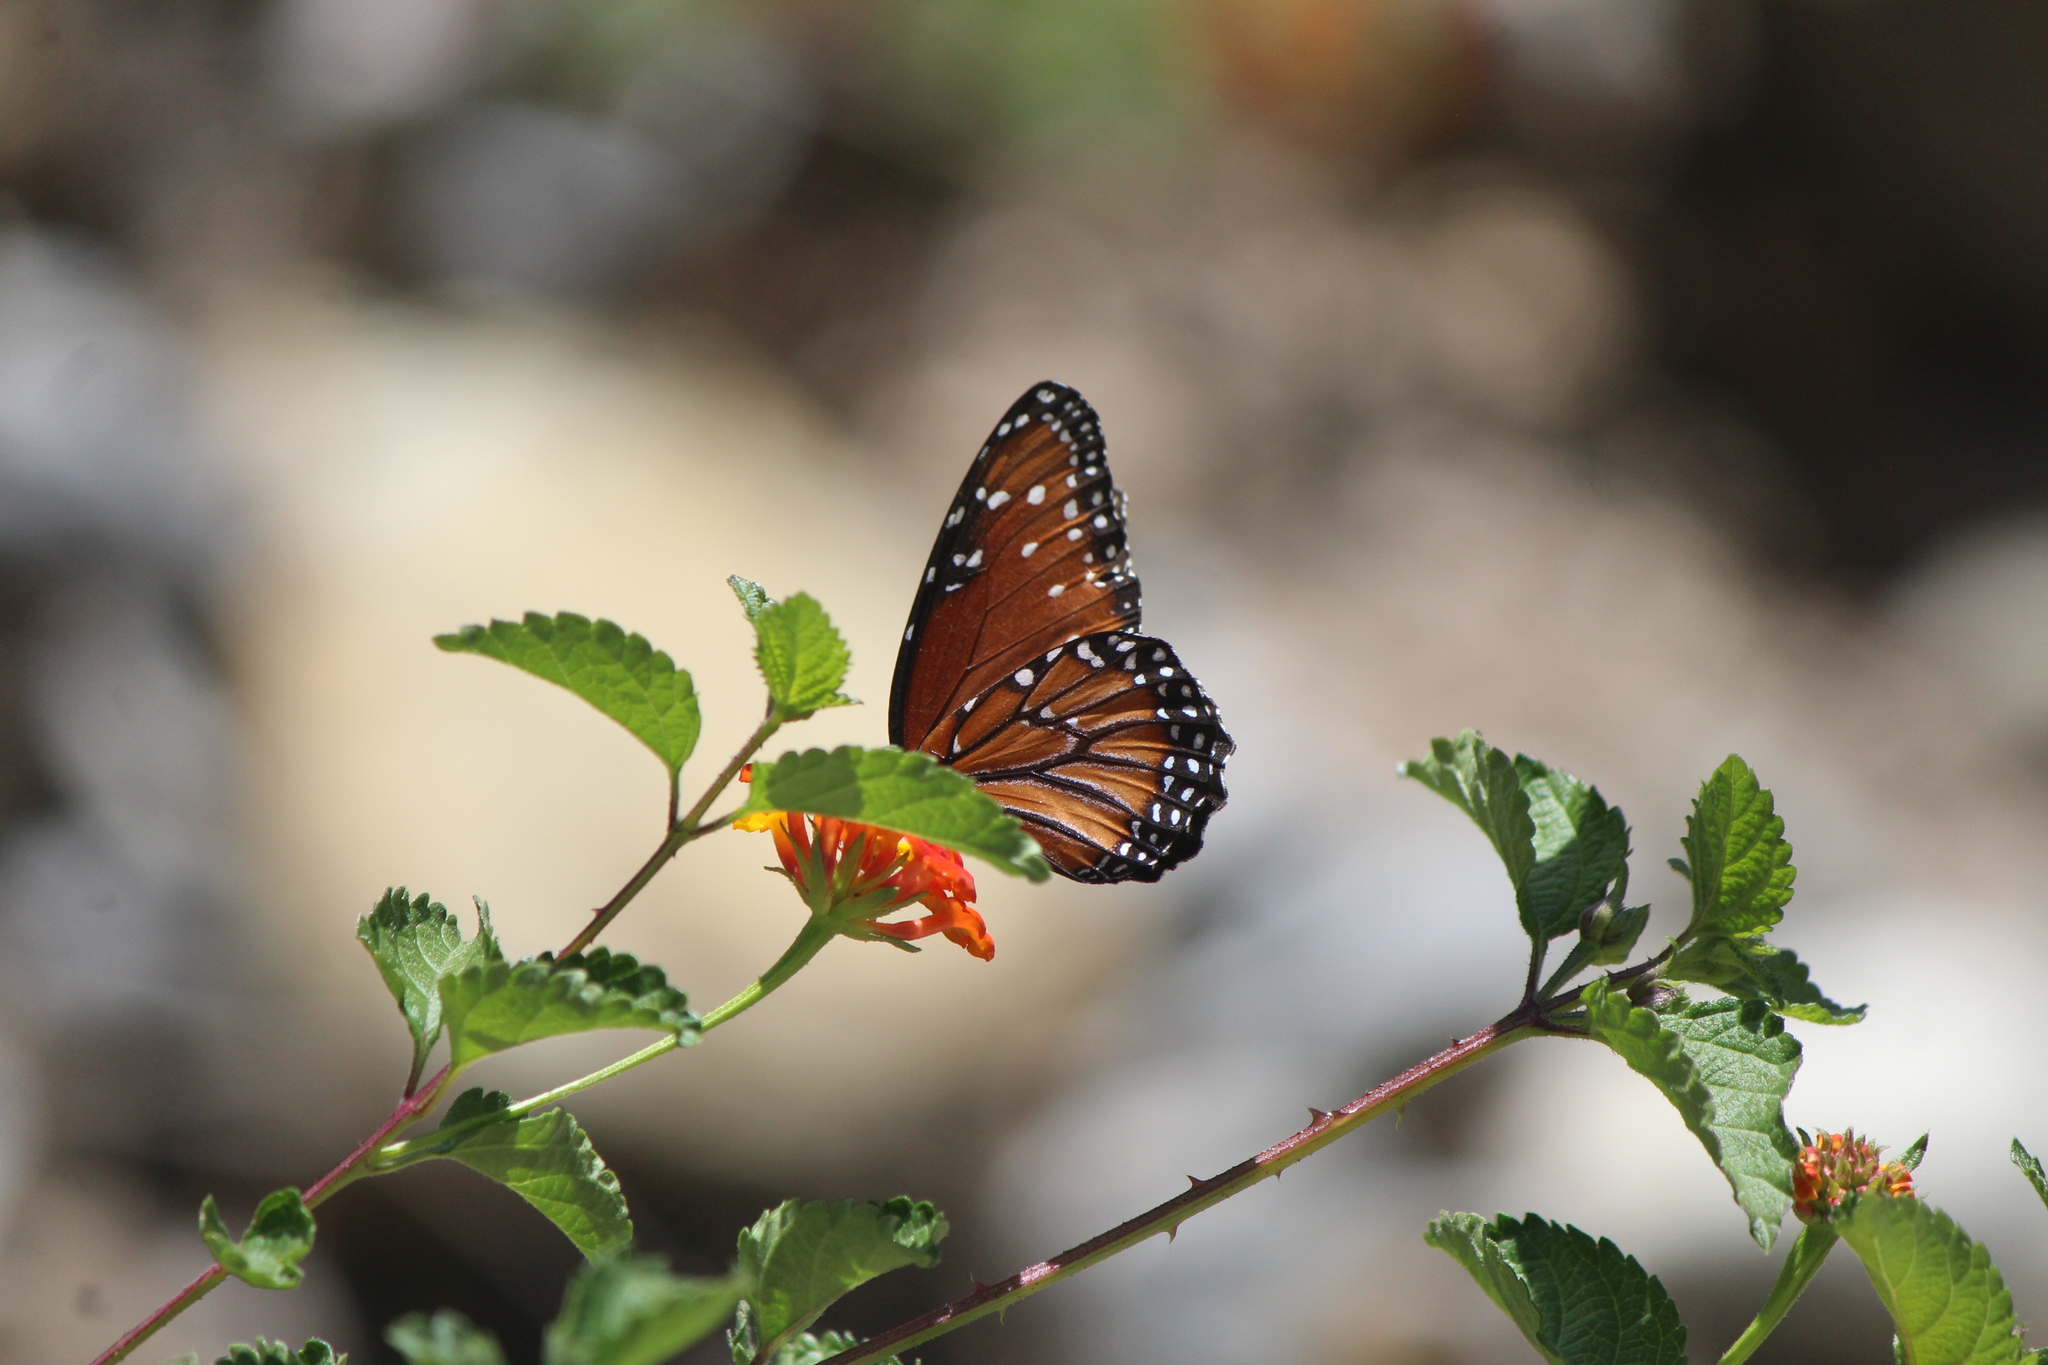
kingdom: Animalia
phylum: Arthropoda
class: Insecta
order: Lepidoptera
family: Nymphalidae
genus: Danaus
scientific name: Danaus gilippus
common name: Queen
